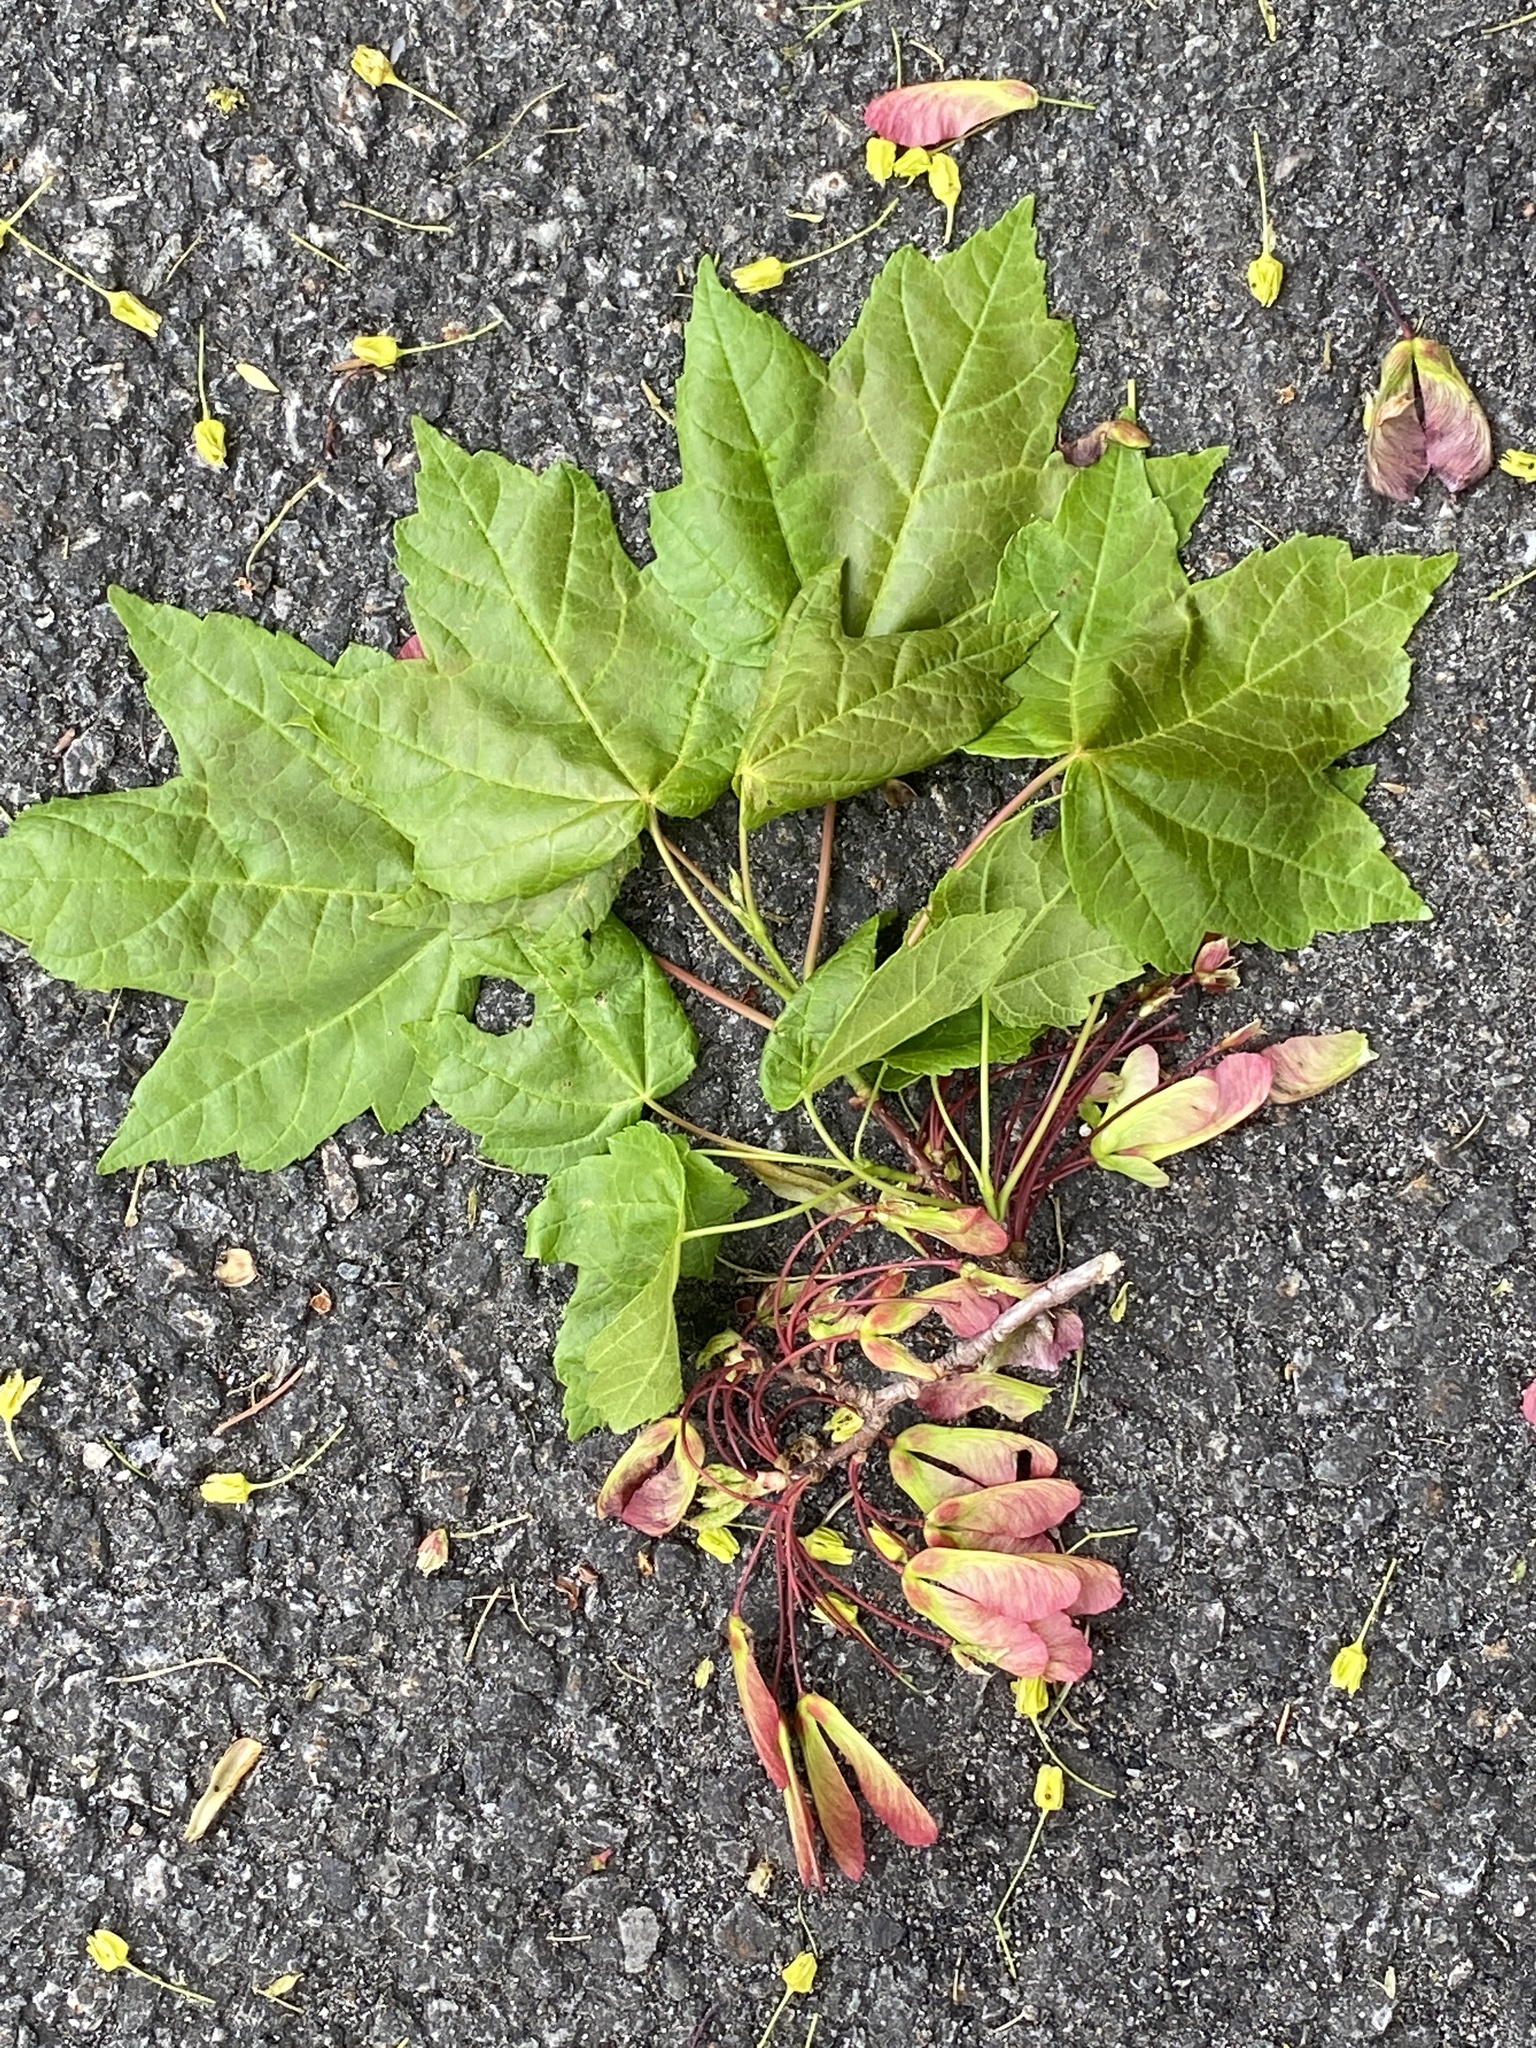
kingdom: Plantae
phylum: Tracheophyta
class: Magnoliopsida
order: Sapindales
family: Sapindaceae
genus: Acer
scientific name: Acer rubrum
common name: Red maple
